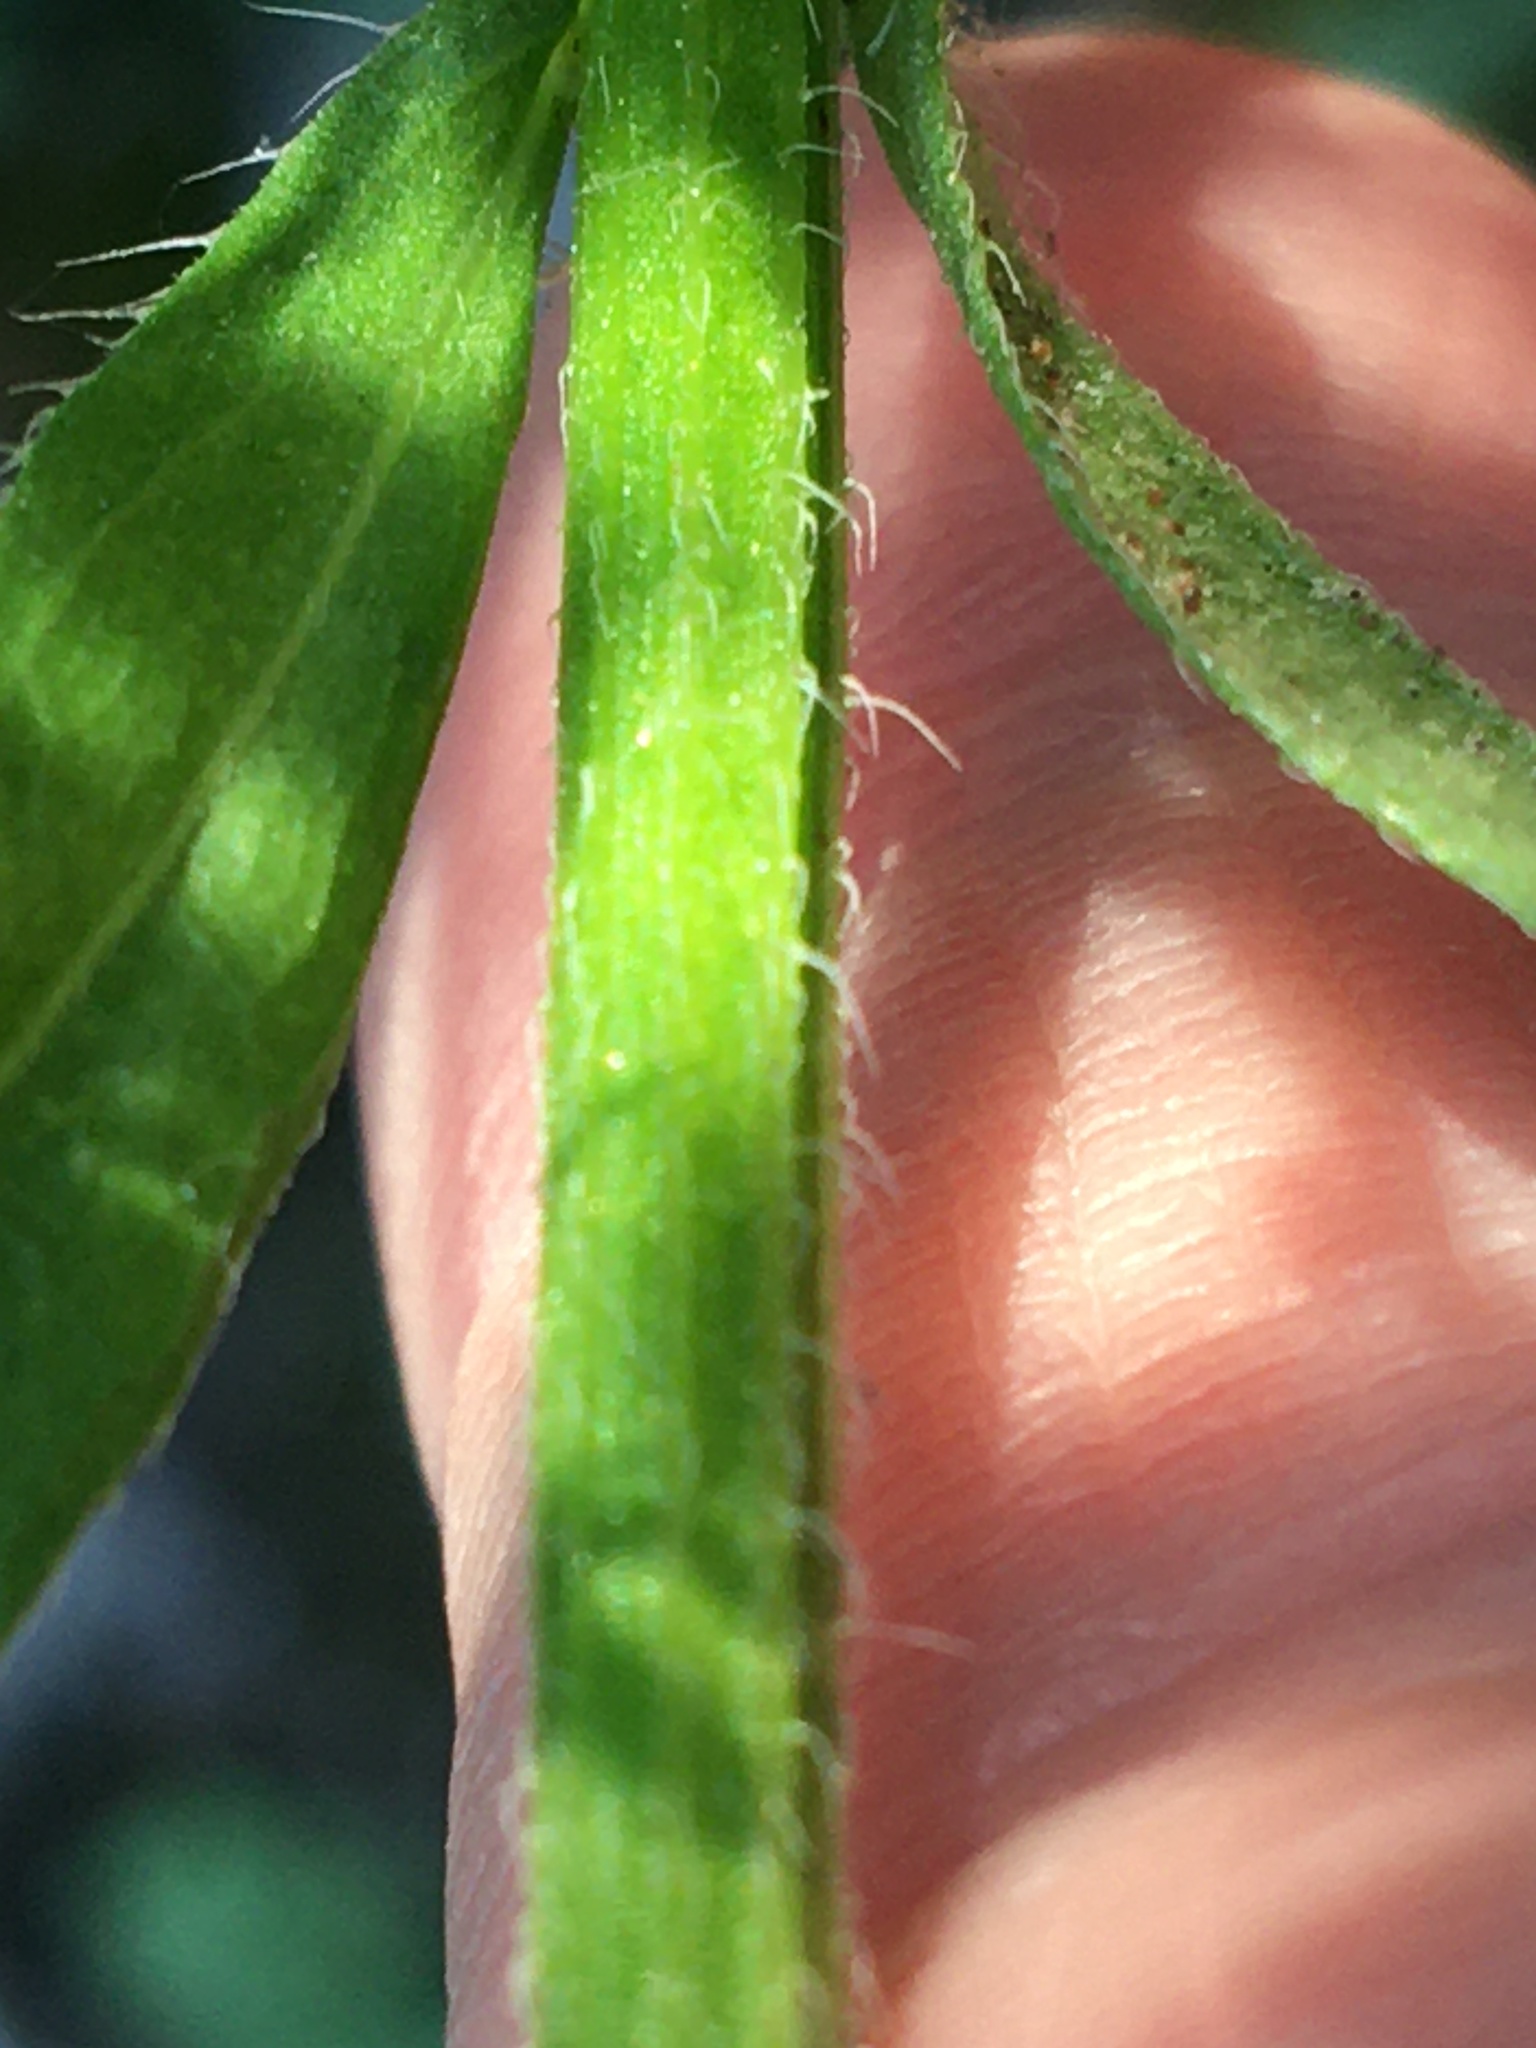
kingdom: Plantae
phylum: Tracheophyta
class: Magnoliopsida
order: Asterales
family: Asteraceae
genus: Erigeron
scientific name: Erigeron annuus
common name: Tall fleabane
